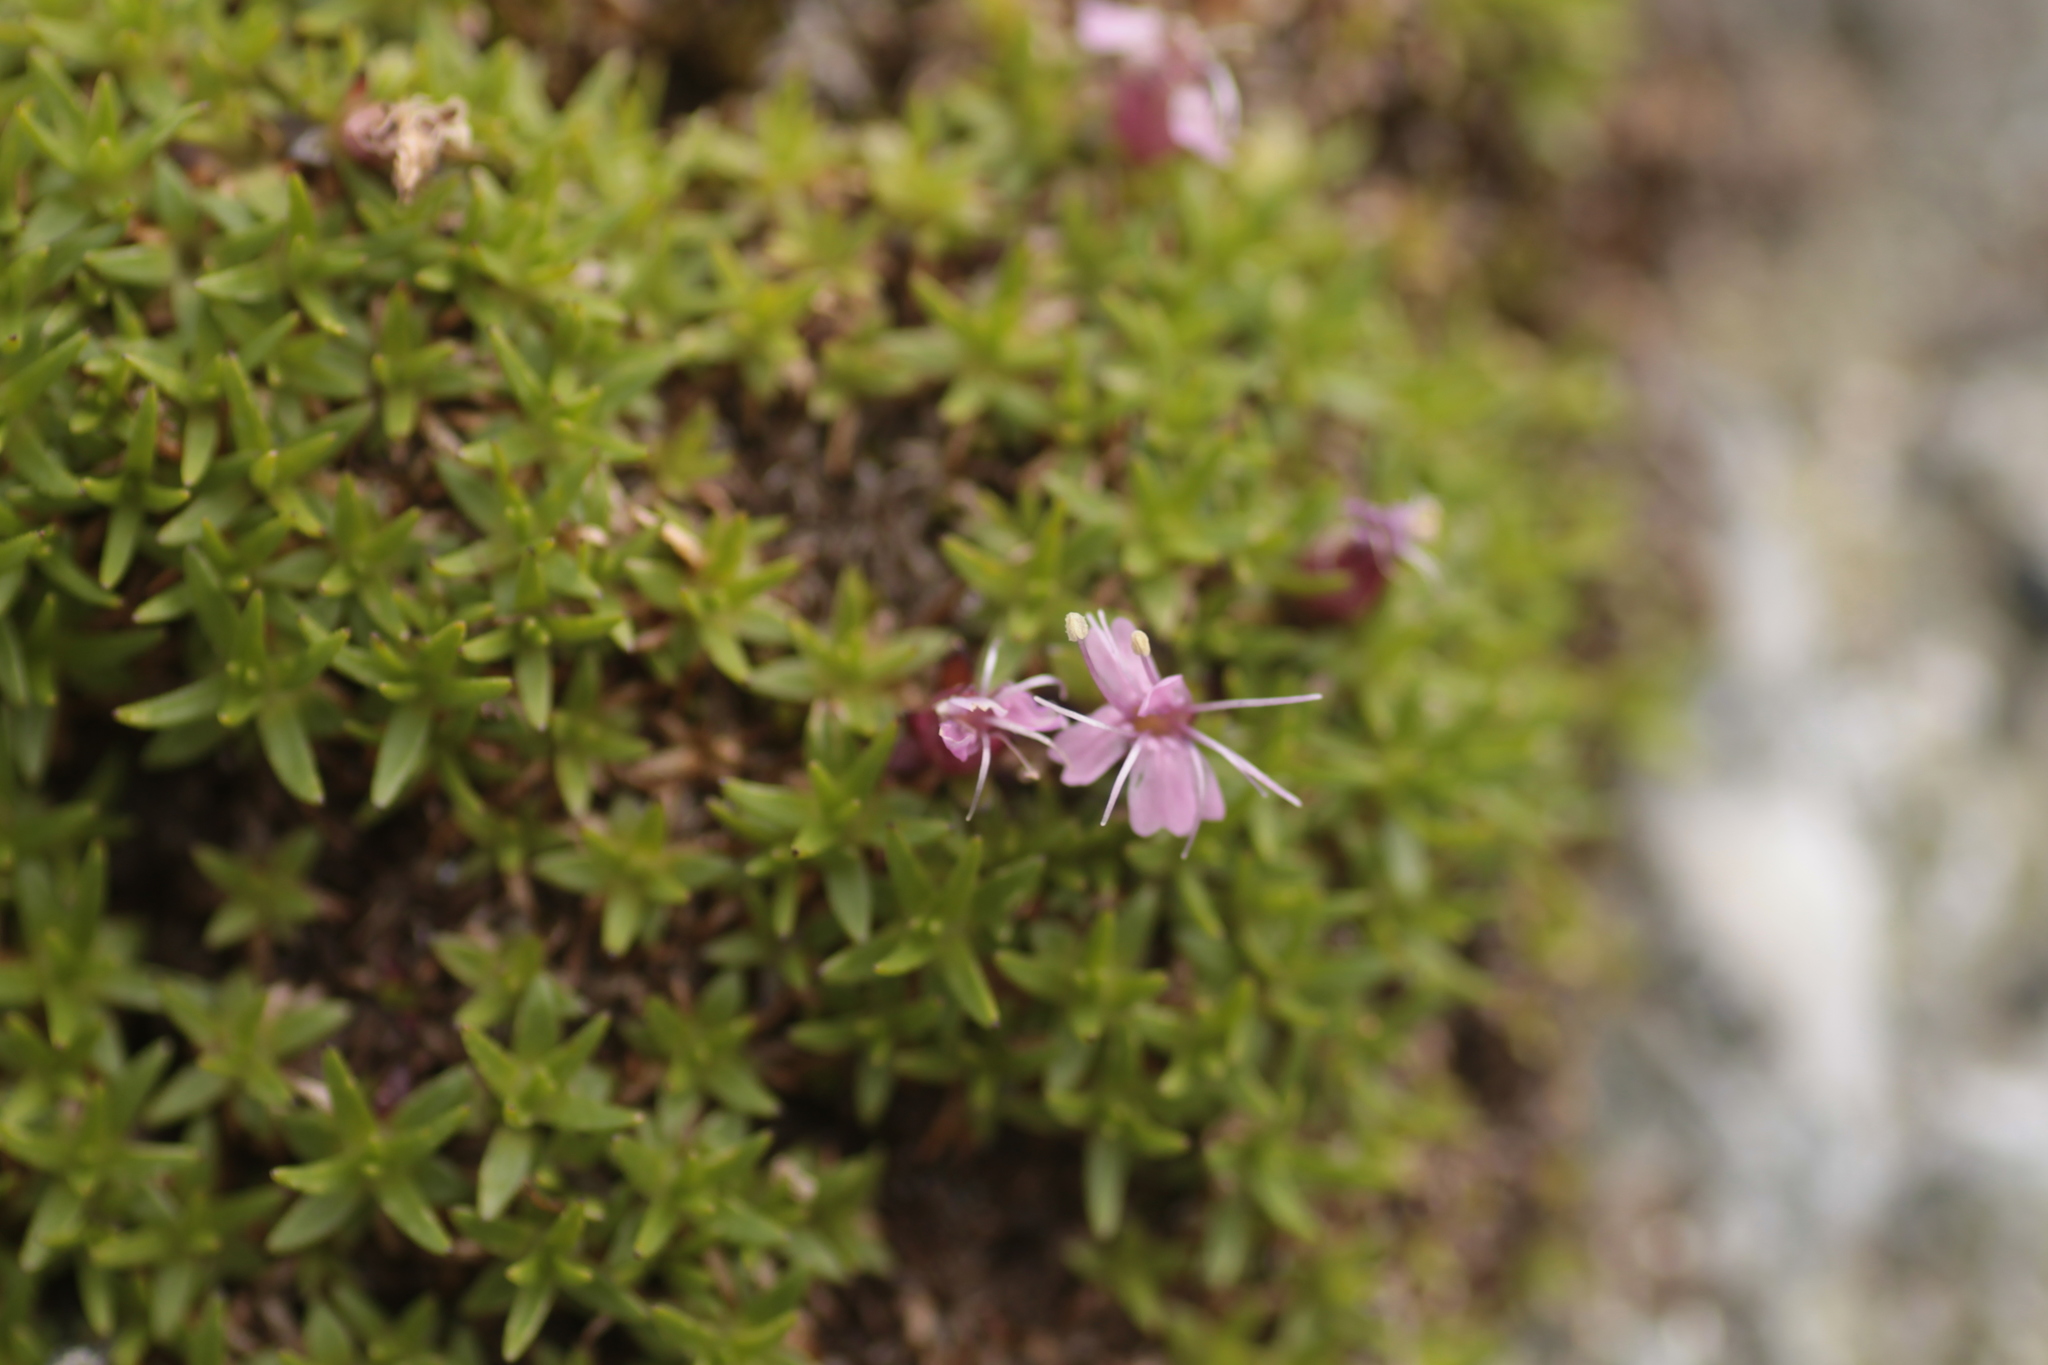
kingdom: Plantae
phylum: Tracheophyta
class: Magnoliopsida
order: Caryophyllales
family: Caryophyllaceae
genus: Silene
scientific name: Silene acaulis
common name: Moss campion
